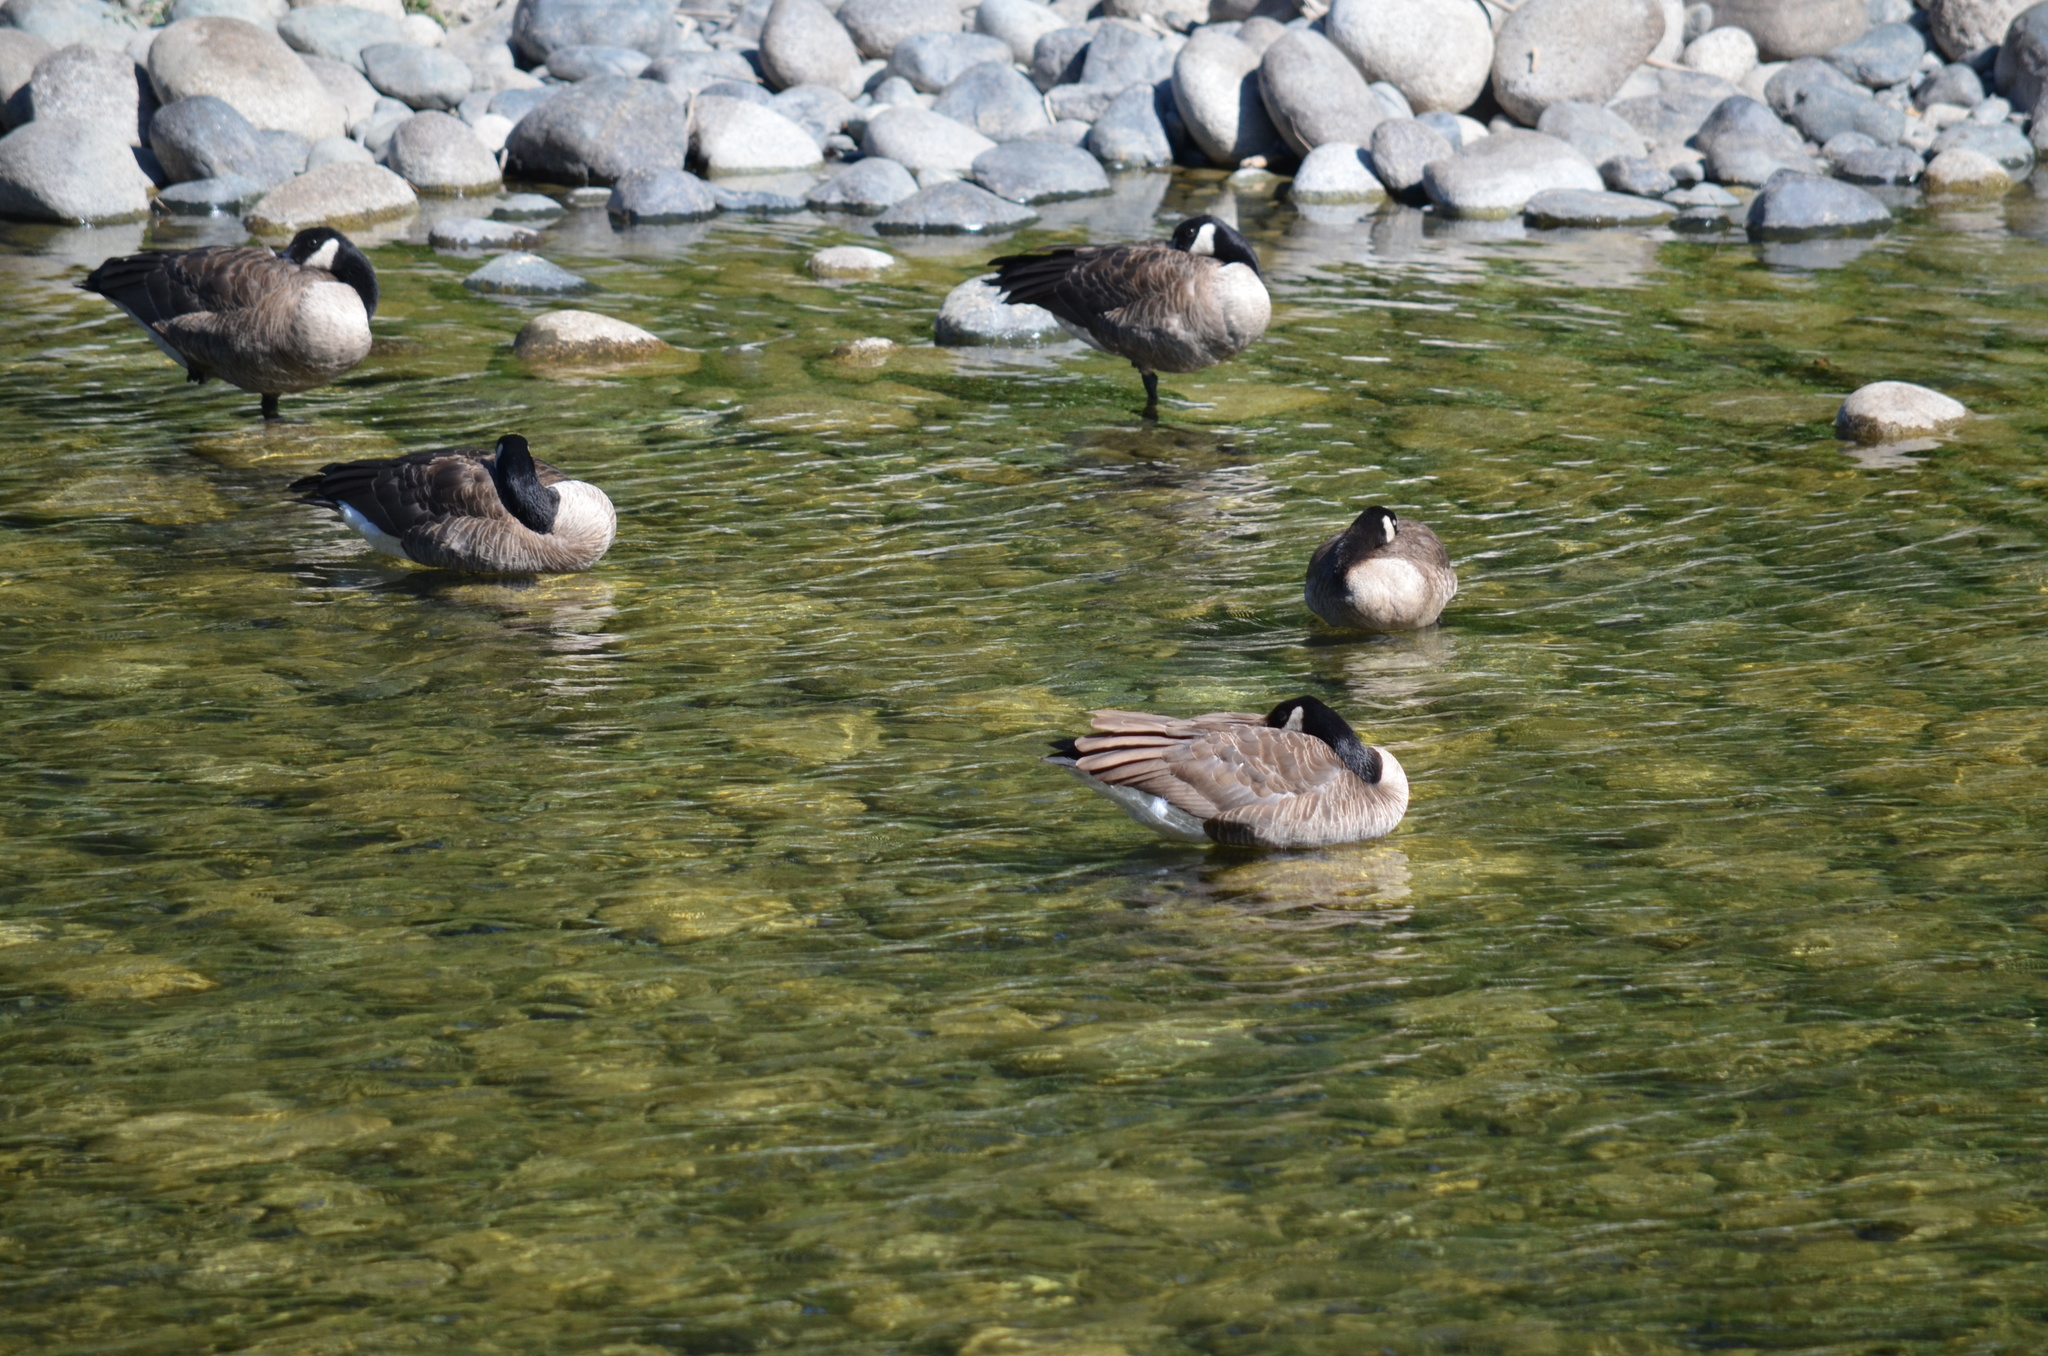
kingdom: Animalia
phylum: Chordata
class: Aves
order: Anseriformes
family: Anatidae
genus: Branta
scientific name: Branta canadensis
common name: Canada goose
